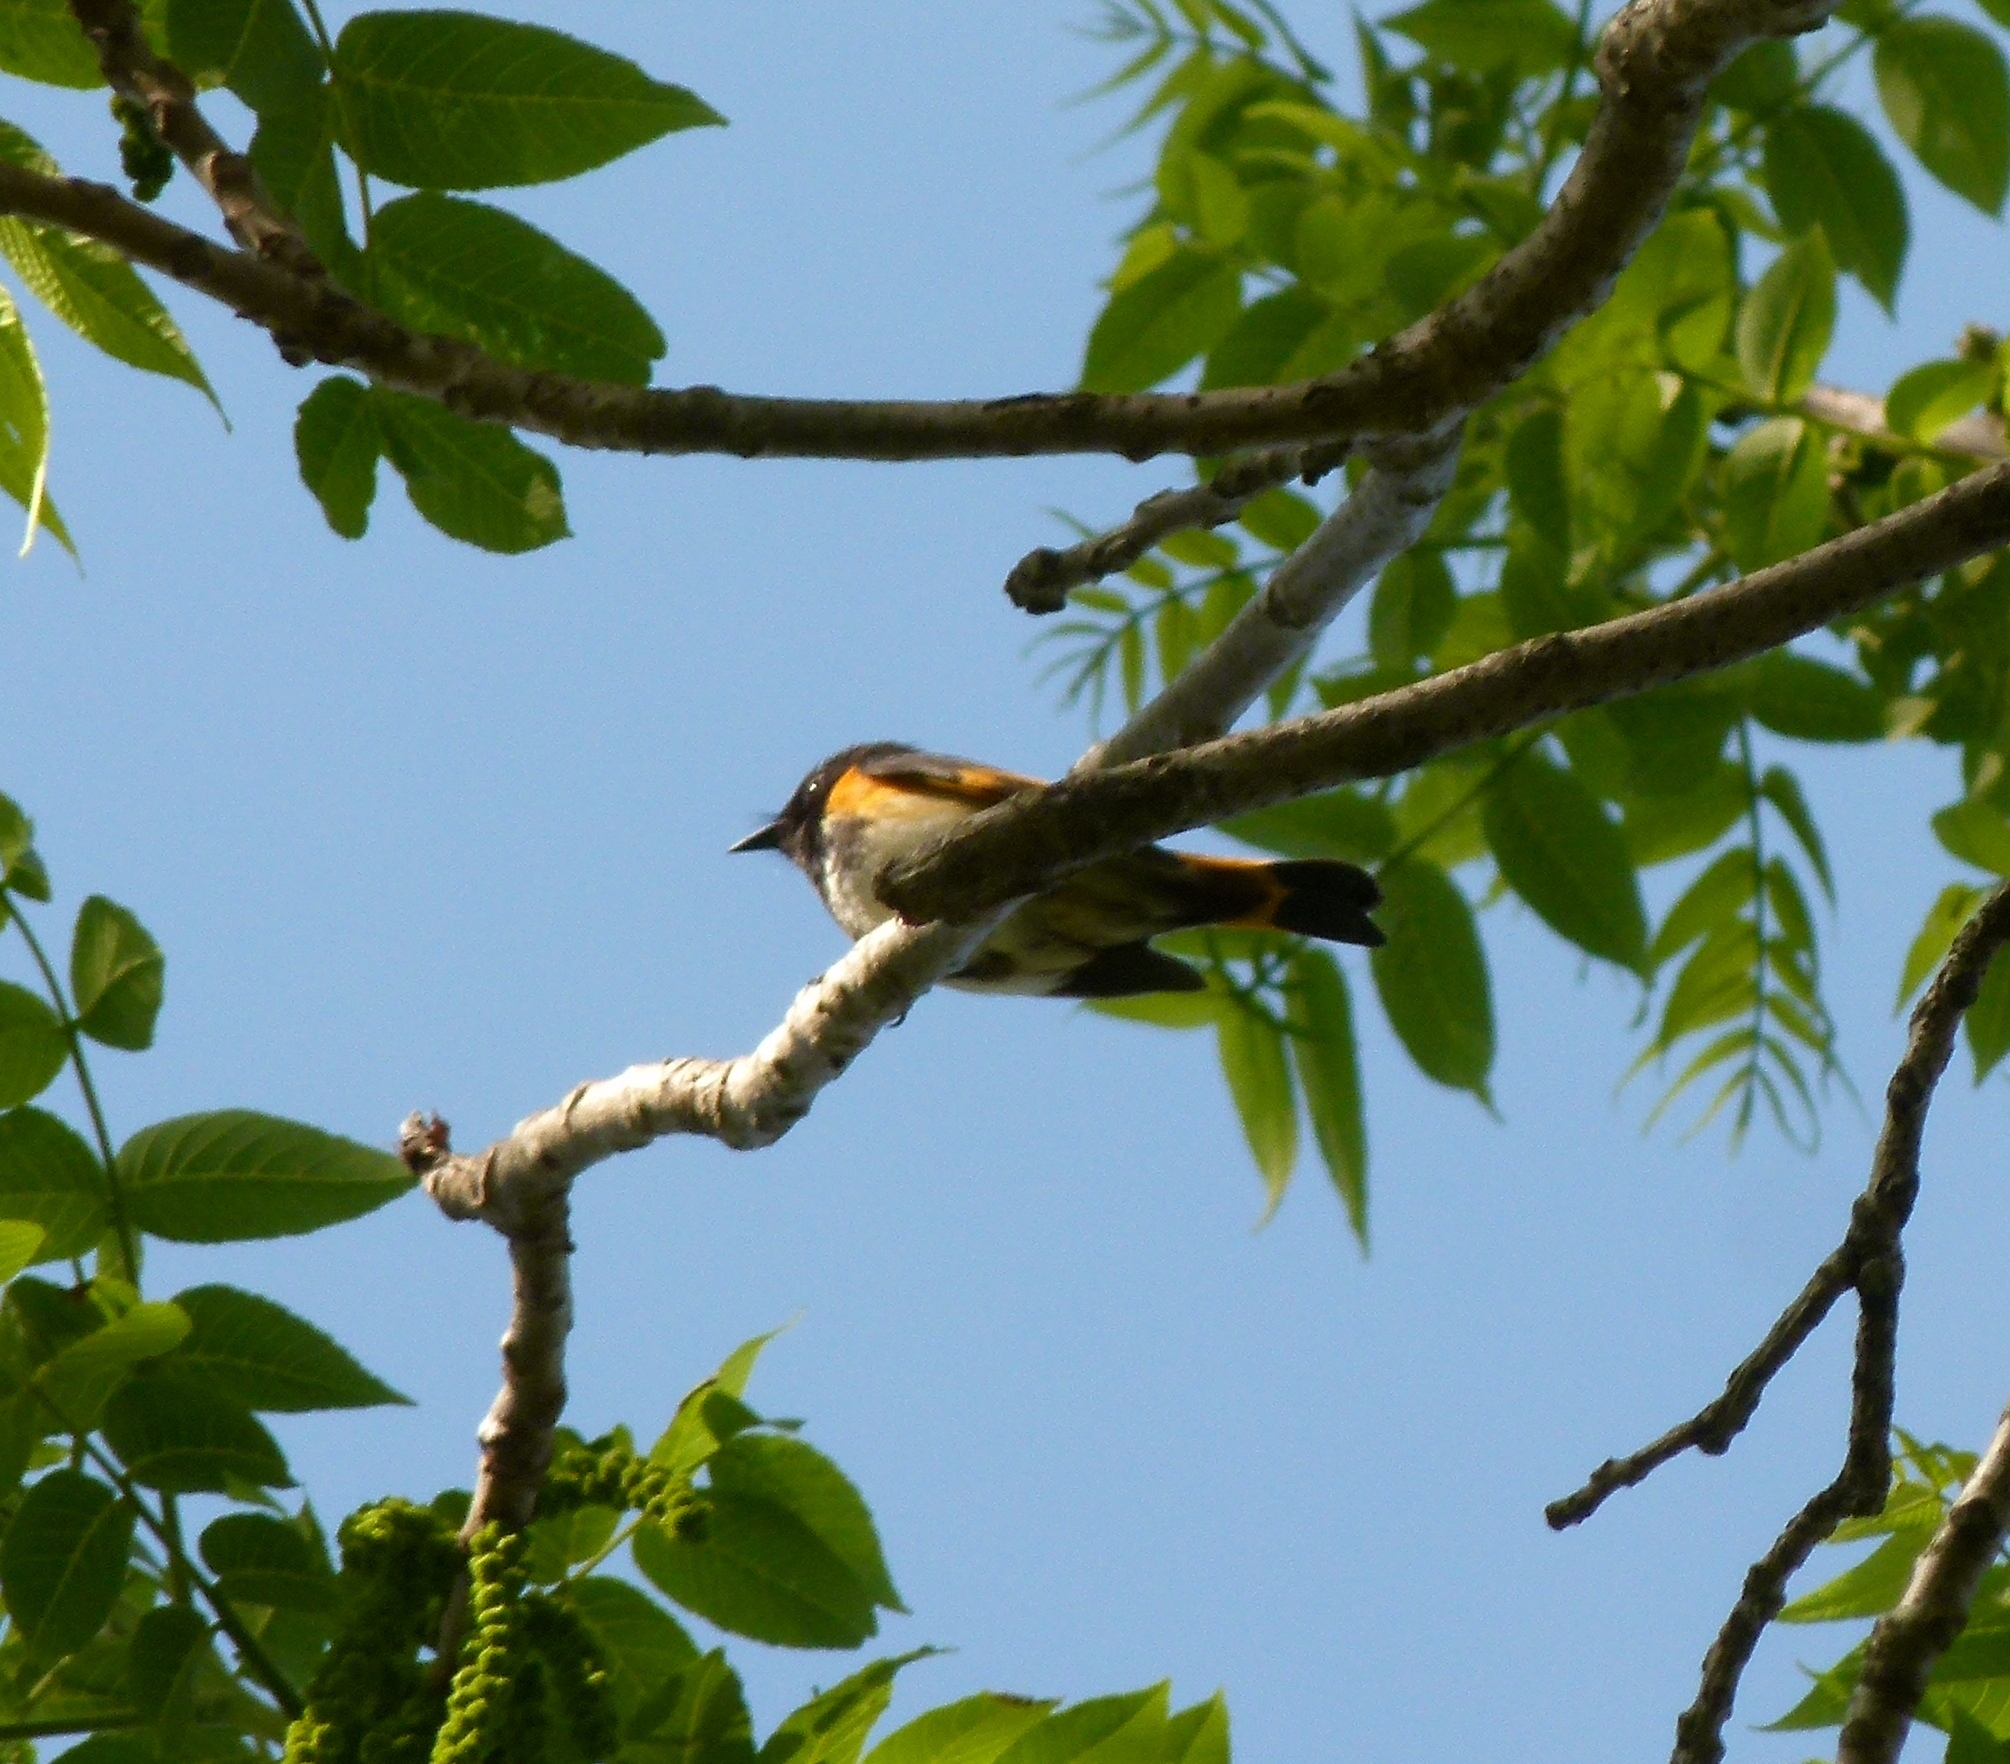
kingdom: Animalia
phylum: Chordata
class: Aves
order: Passeriformes
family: Parulidae
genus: Setophaga
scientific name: Setophaga ruticilla
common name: American redstart
